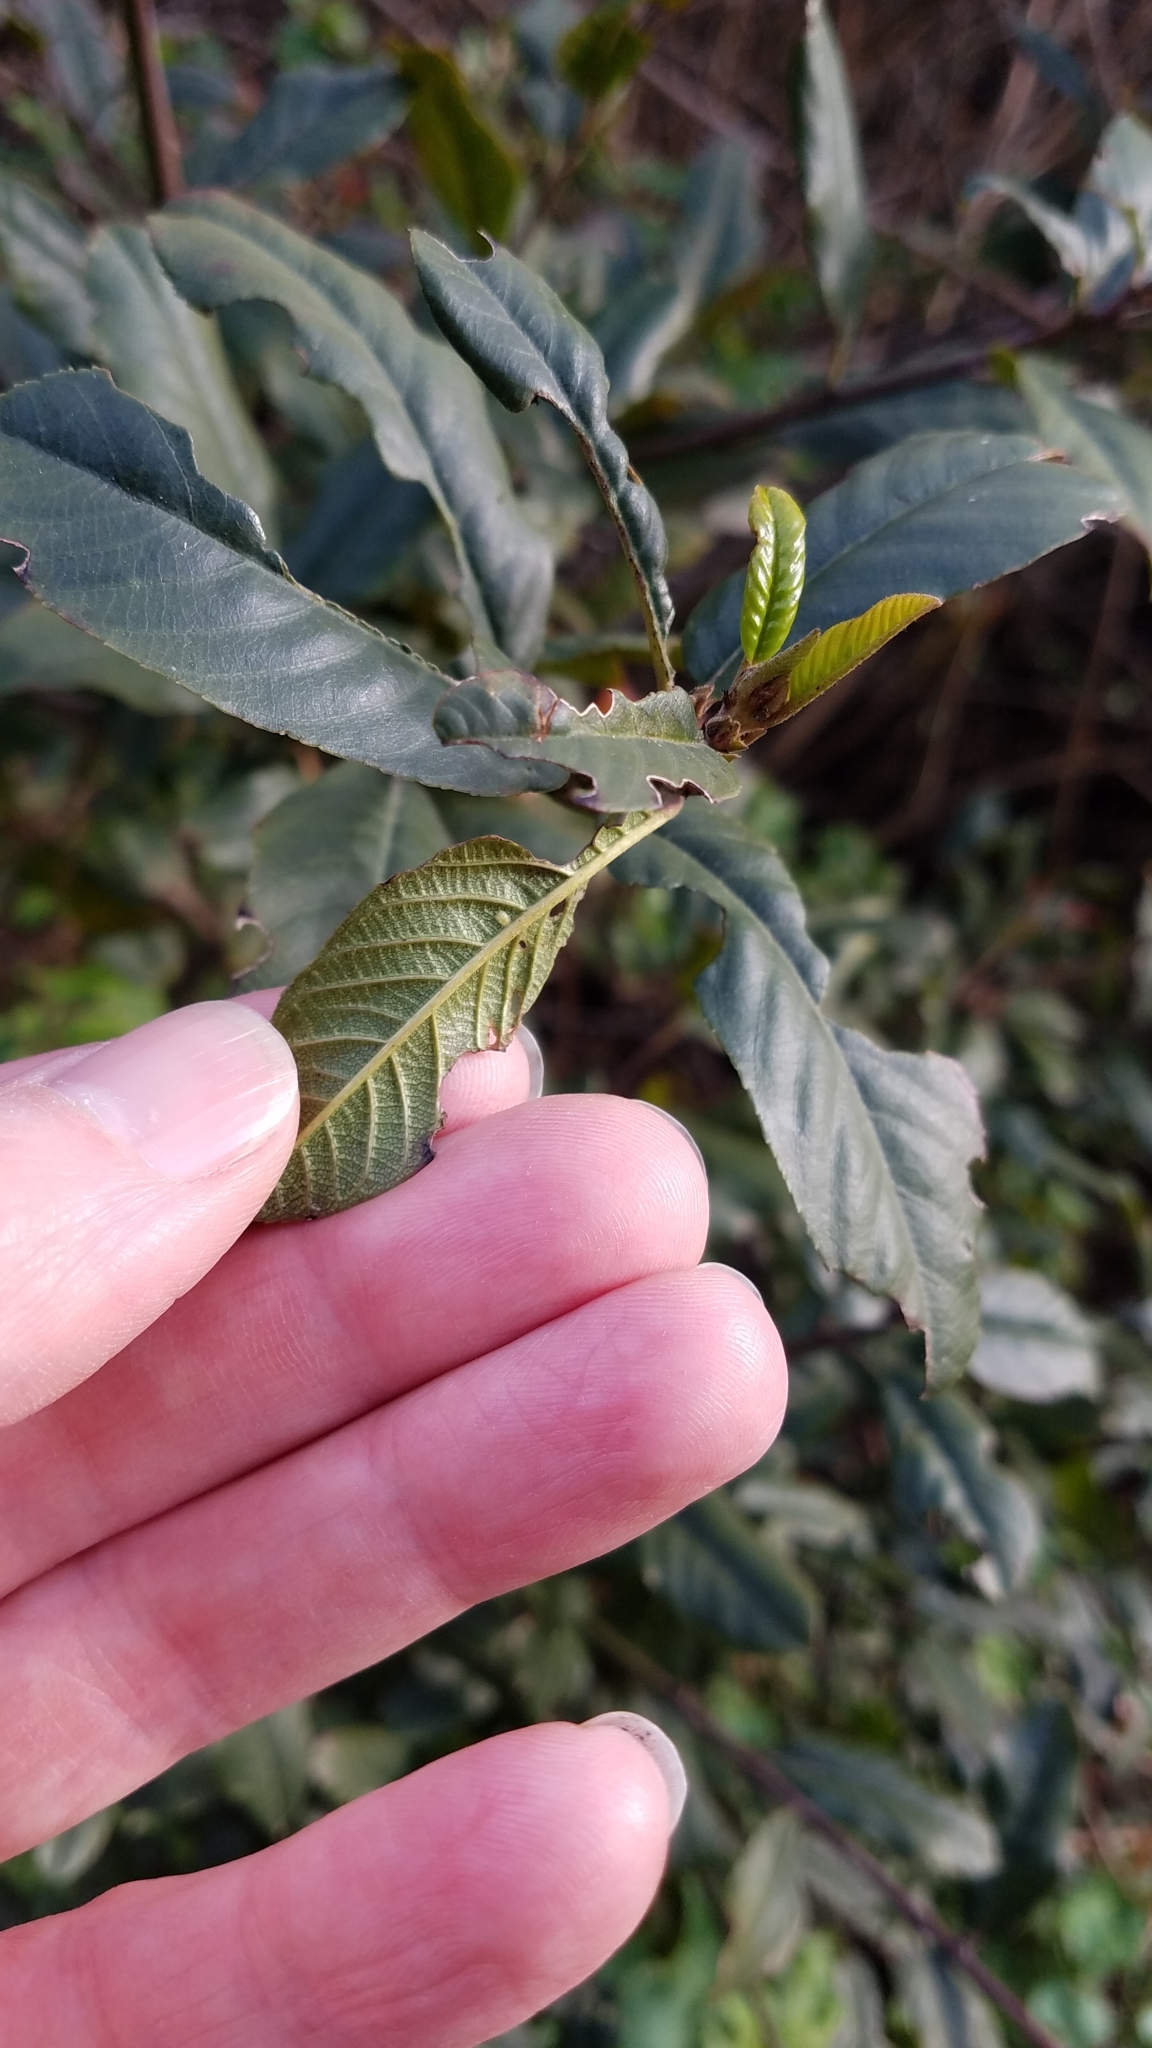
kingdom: Plantae
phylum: Tracheophyta
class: Magnoliopsida
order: Rosales
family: Rhamnaceae
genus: Frangula
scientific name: Frangula californica
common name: California buckthorn
